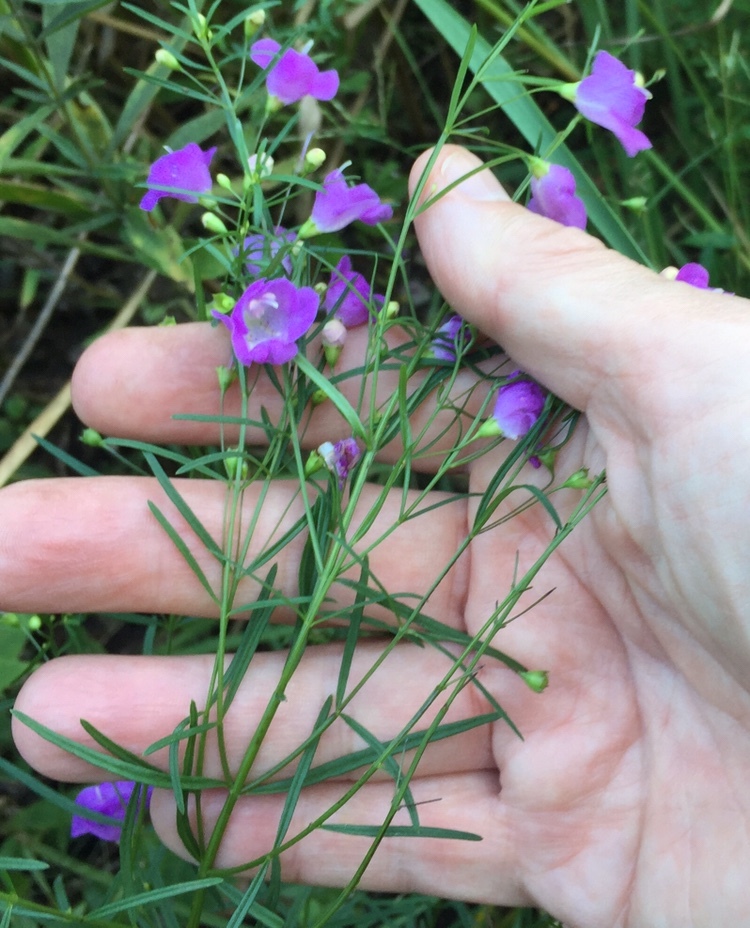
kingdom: Plantae
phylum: Tracheophyta
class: Magnoliopsida
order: Lamiales
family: Orobanchaceae
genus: Agalinis
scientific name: Agalinis tenuifolia
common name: Slender agalinis
